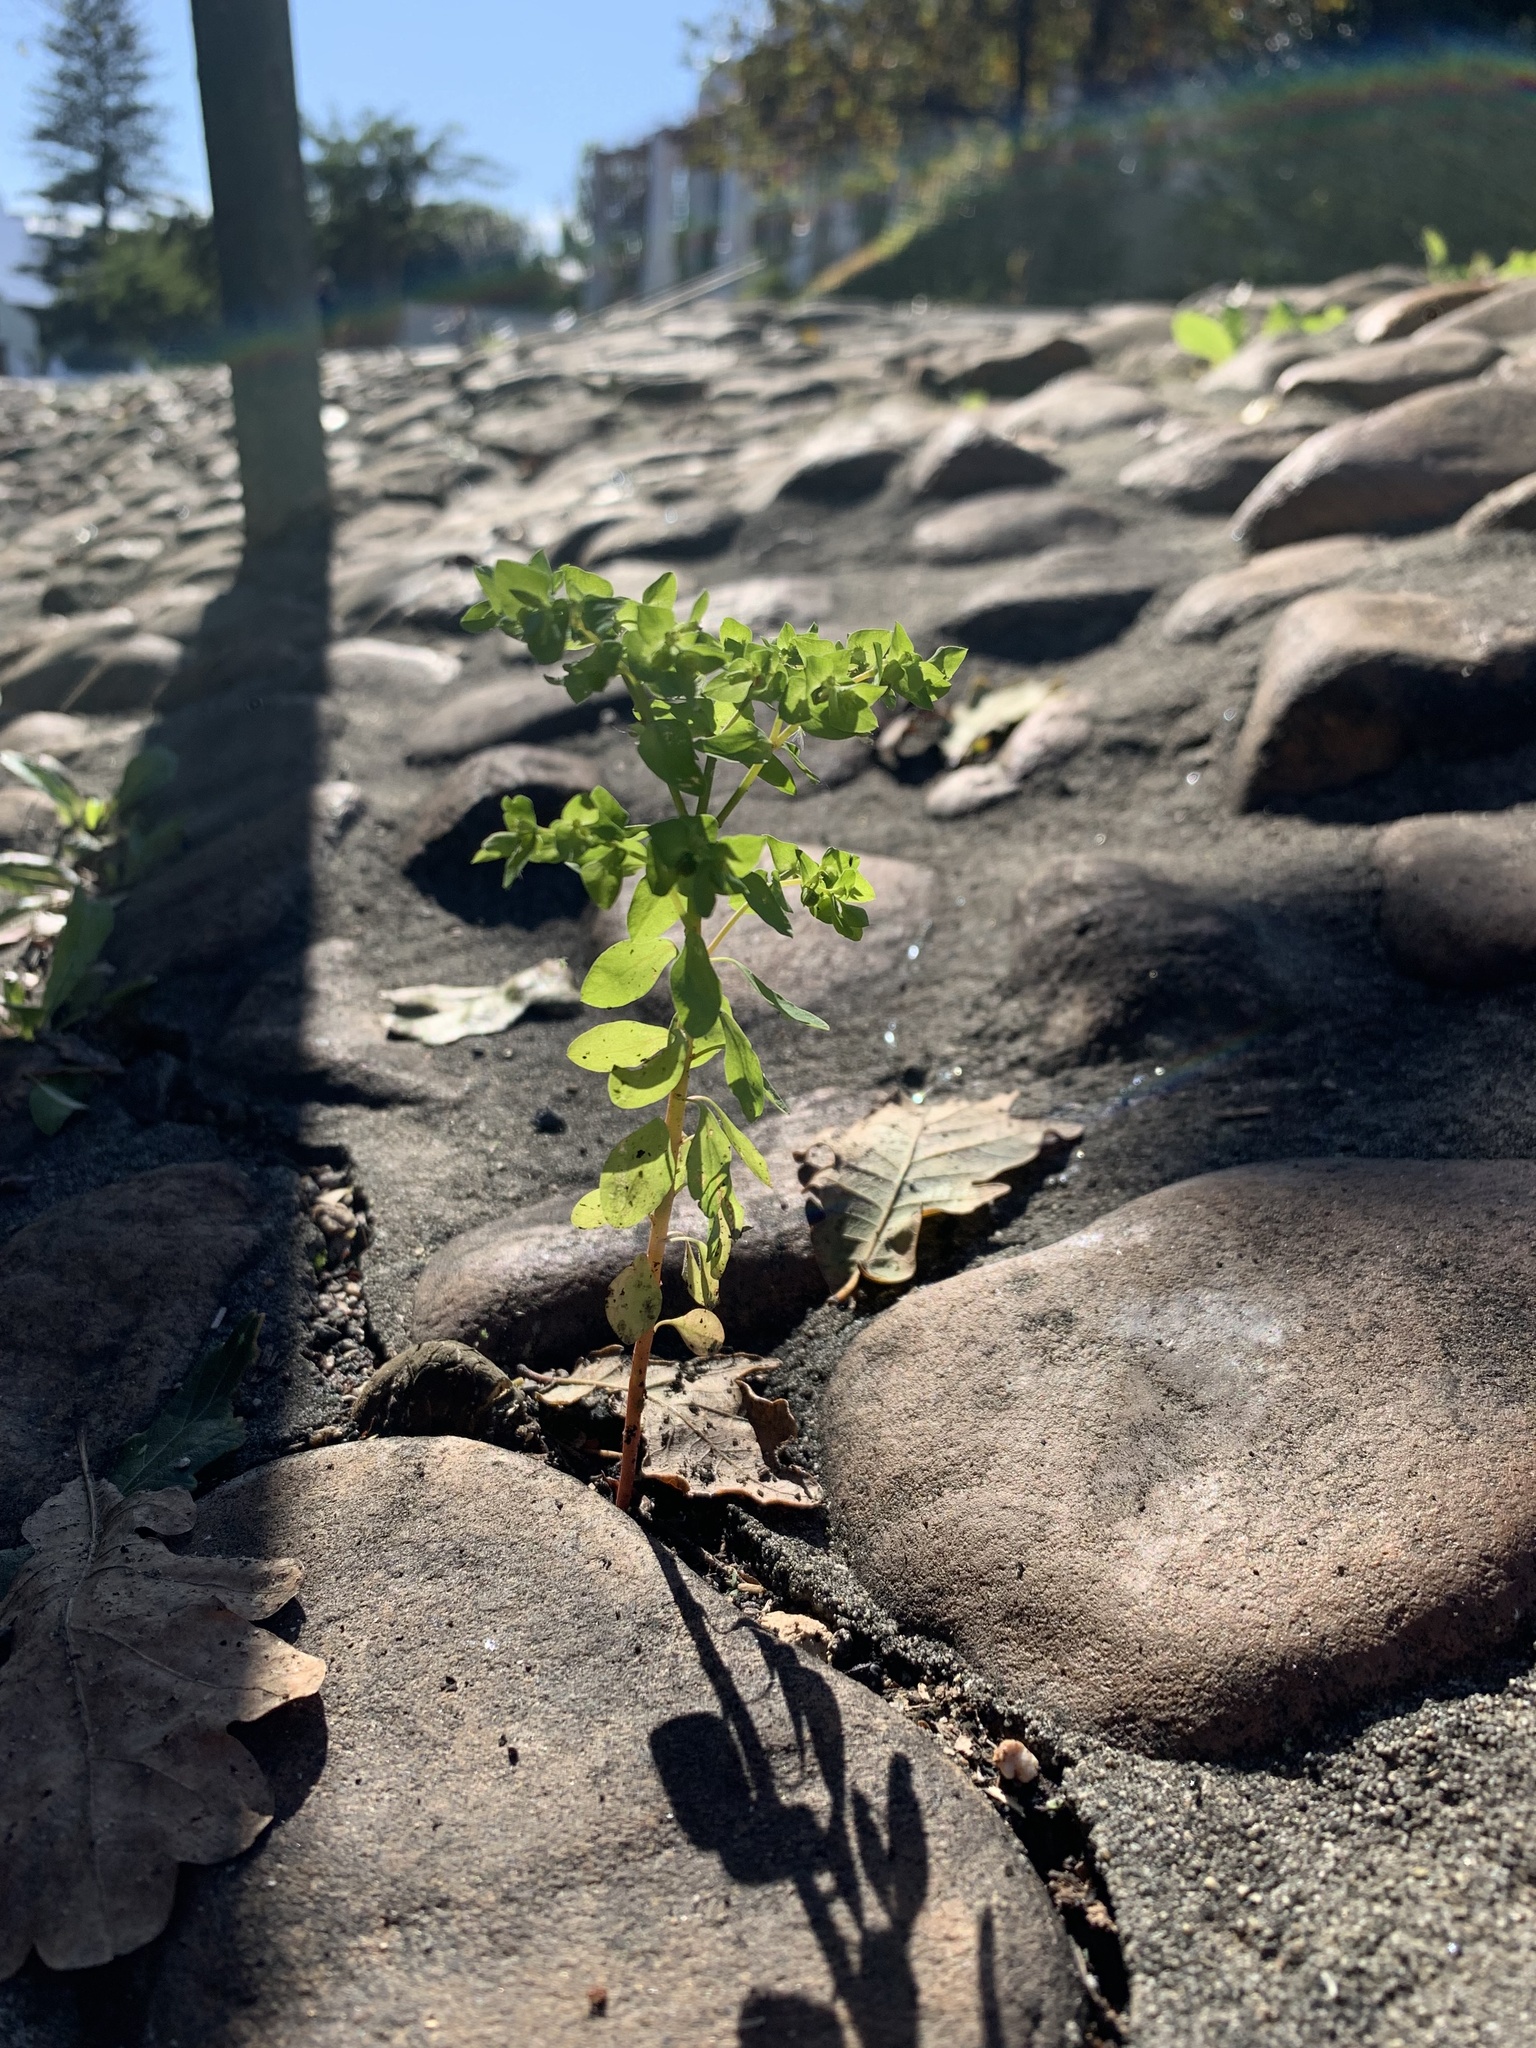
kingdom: Plantae
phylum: Tracheophyta
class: Magnoliopsida
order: Malpighiales
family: Euphorbiaceae
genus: Euphorbia
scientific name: Euphorbia peplus
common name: Petty spurge
